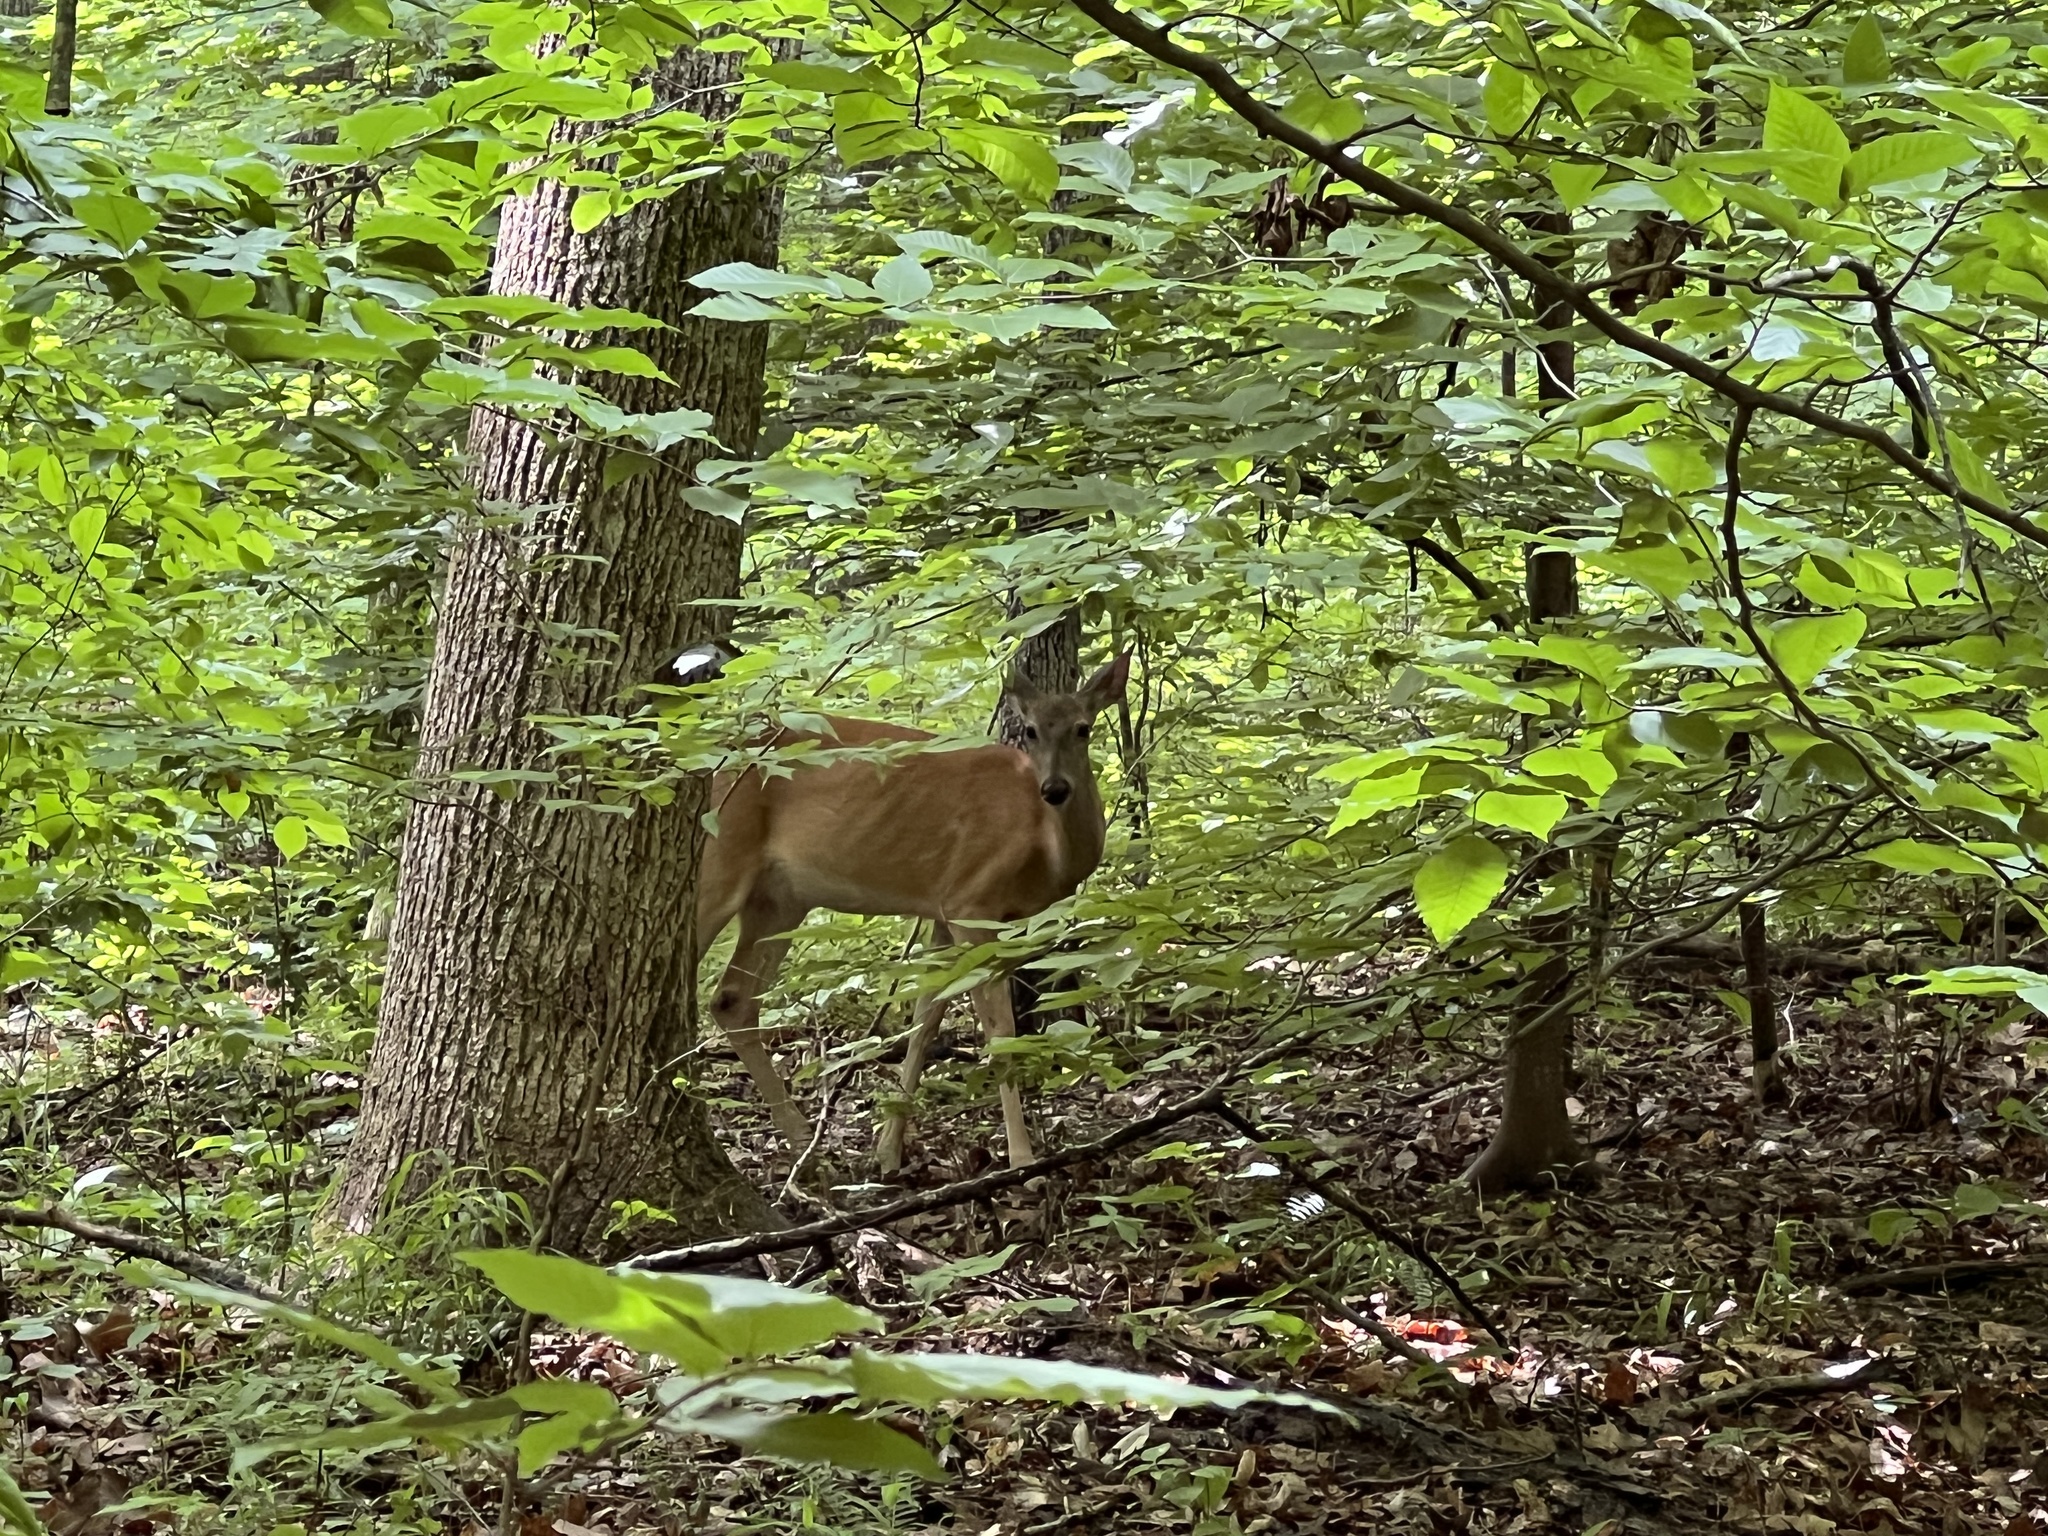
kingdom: Animalia
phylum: Chordata
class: Mammalia
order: Artiodactyla
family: Cervidae
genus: Odocoileus
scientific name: Odocoileus virginianus
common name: White-tailed deer
